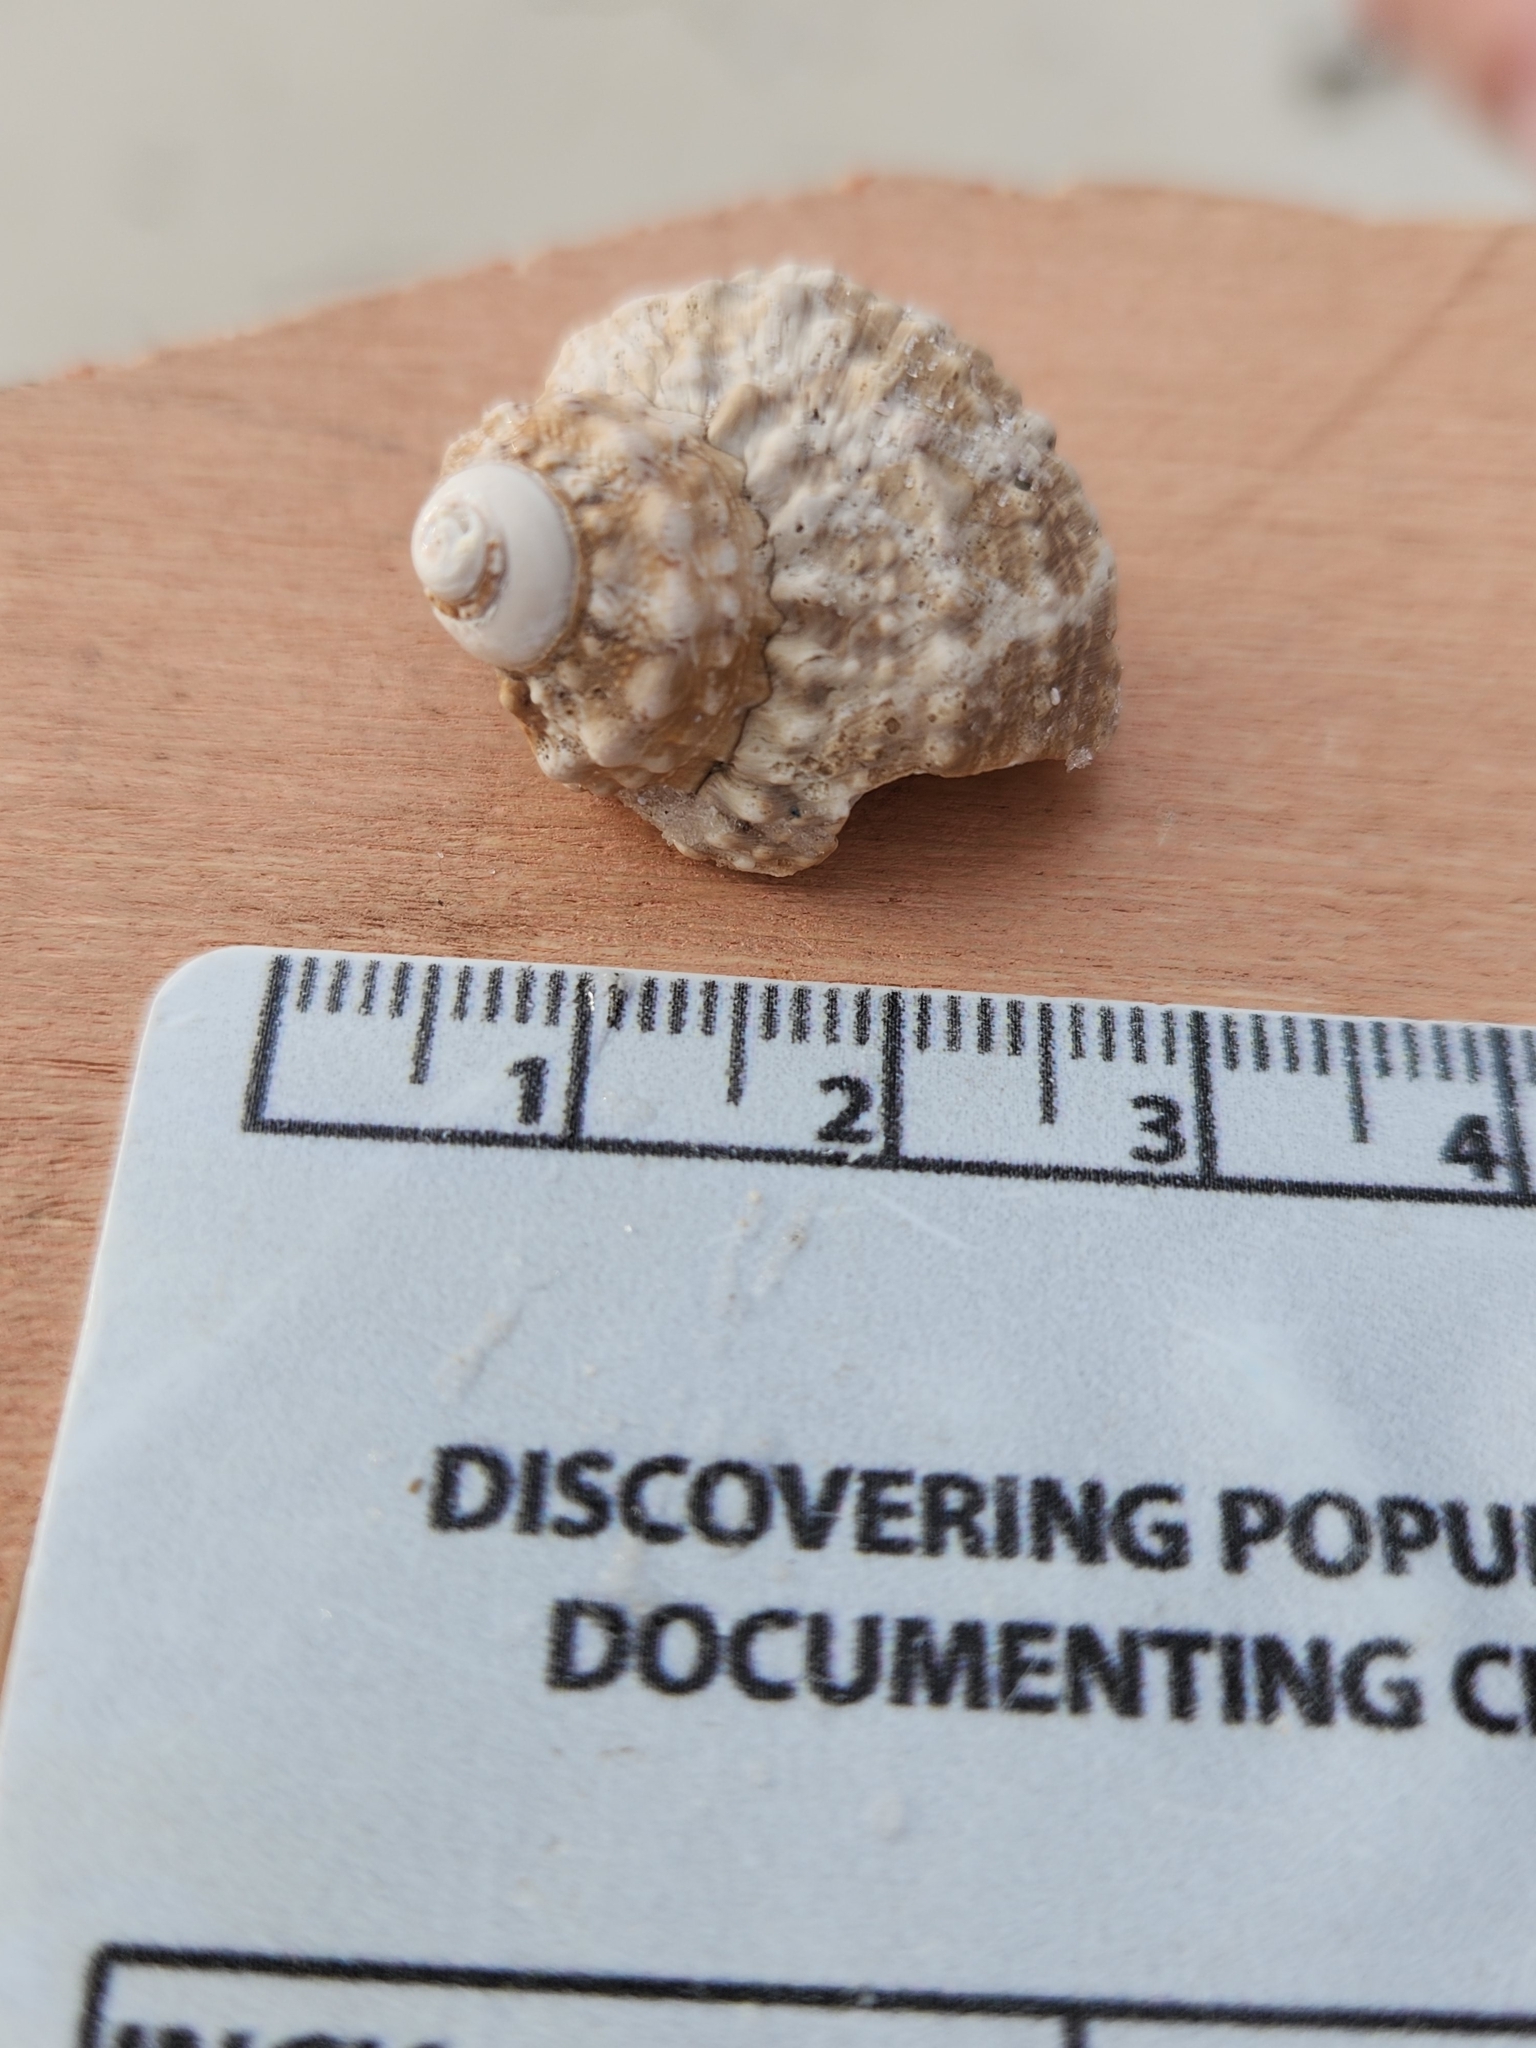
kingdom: Animalia
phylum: Mollusca
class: Gastropoda
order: Trochida
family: Turbinidae
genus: Turbo
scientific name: Turbo castanea
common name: Chestnut turban
